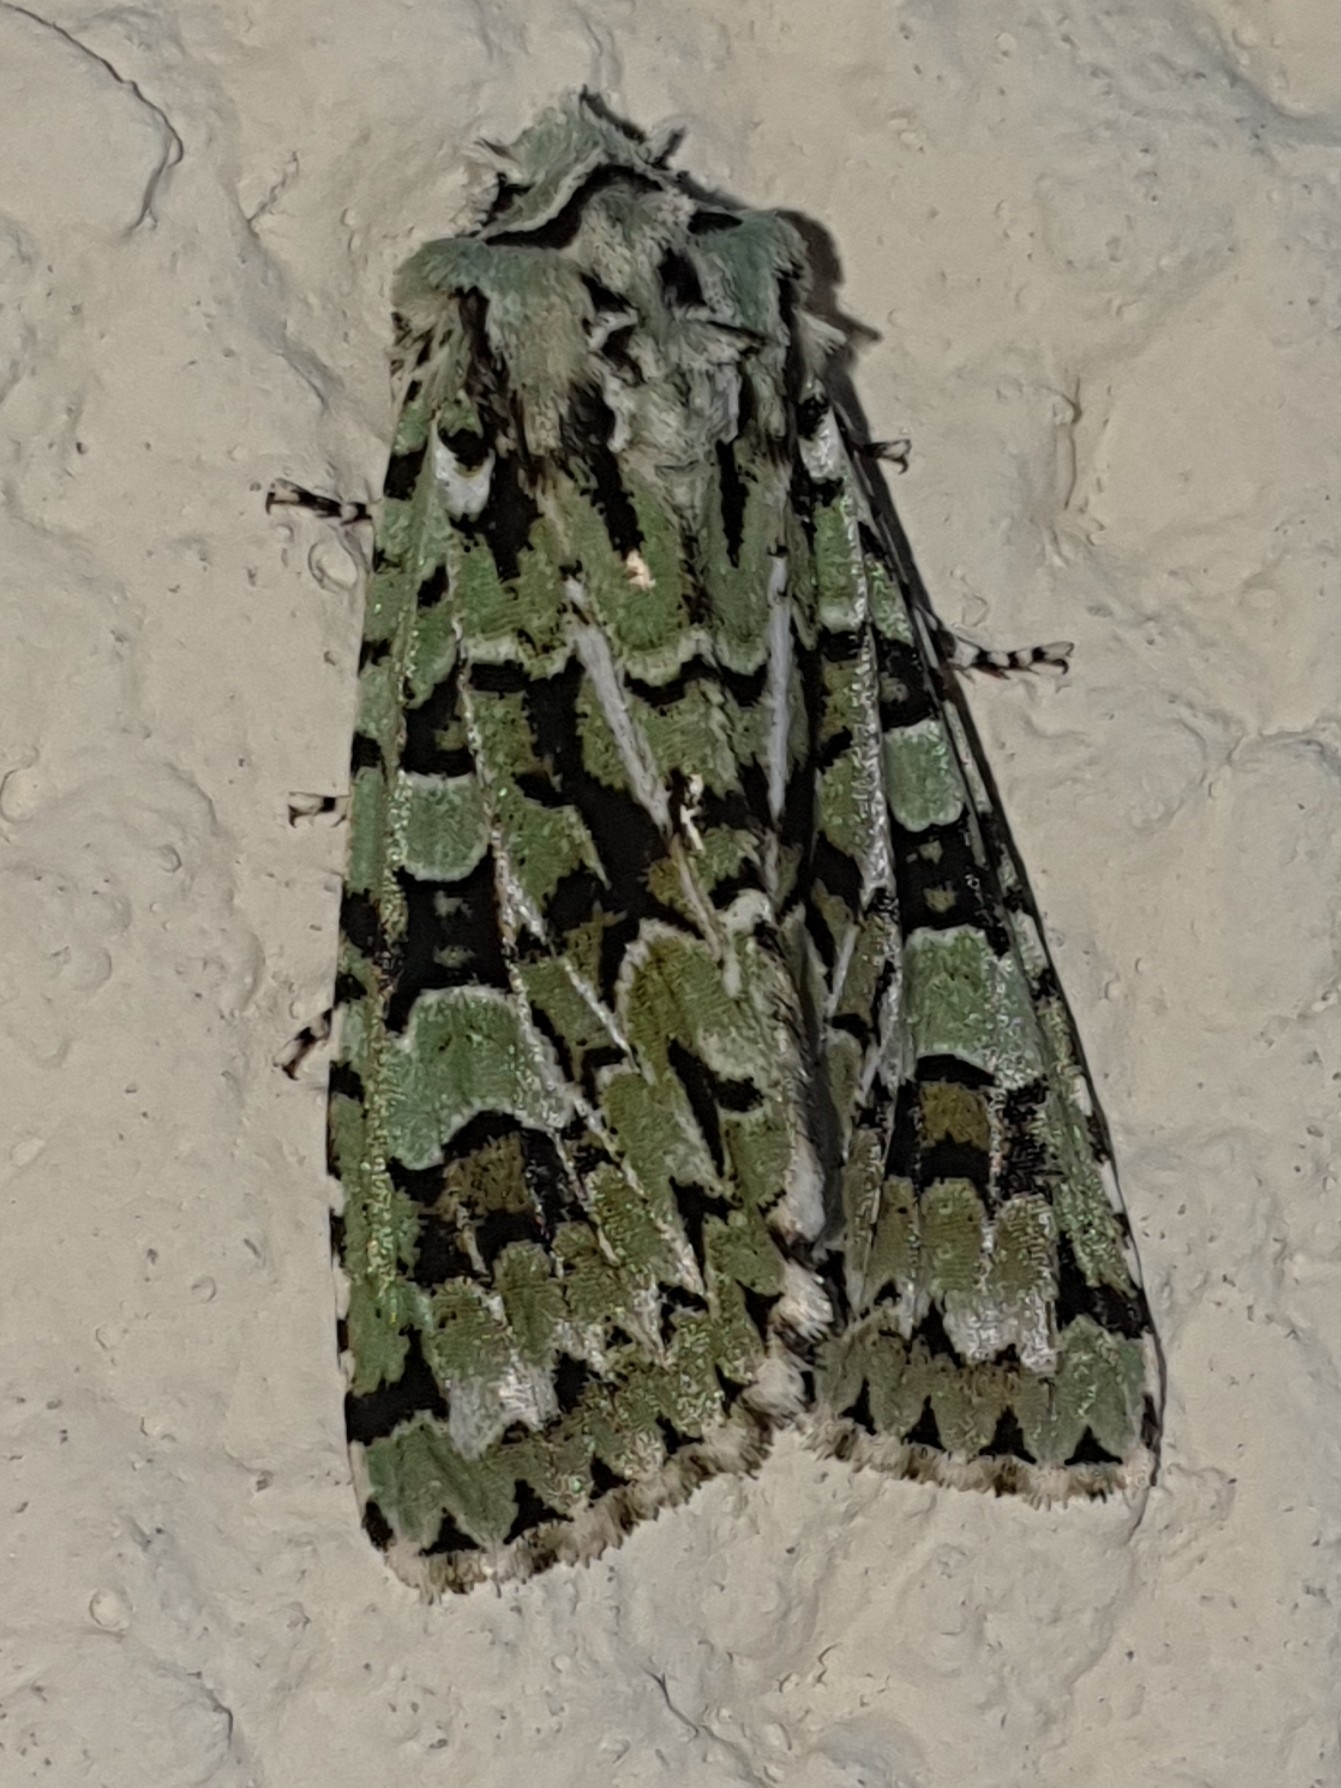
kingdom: Animalia
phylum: Arthropoda
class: Insecta
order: Lepidoptera
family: Noctuidae
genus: Griposia
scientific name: Griposia aprilina
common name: Merveille du jour
